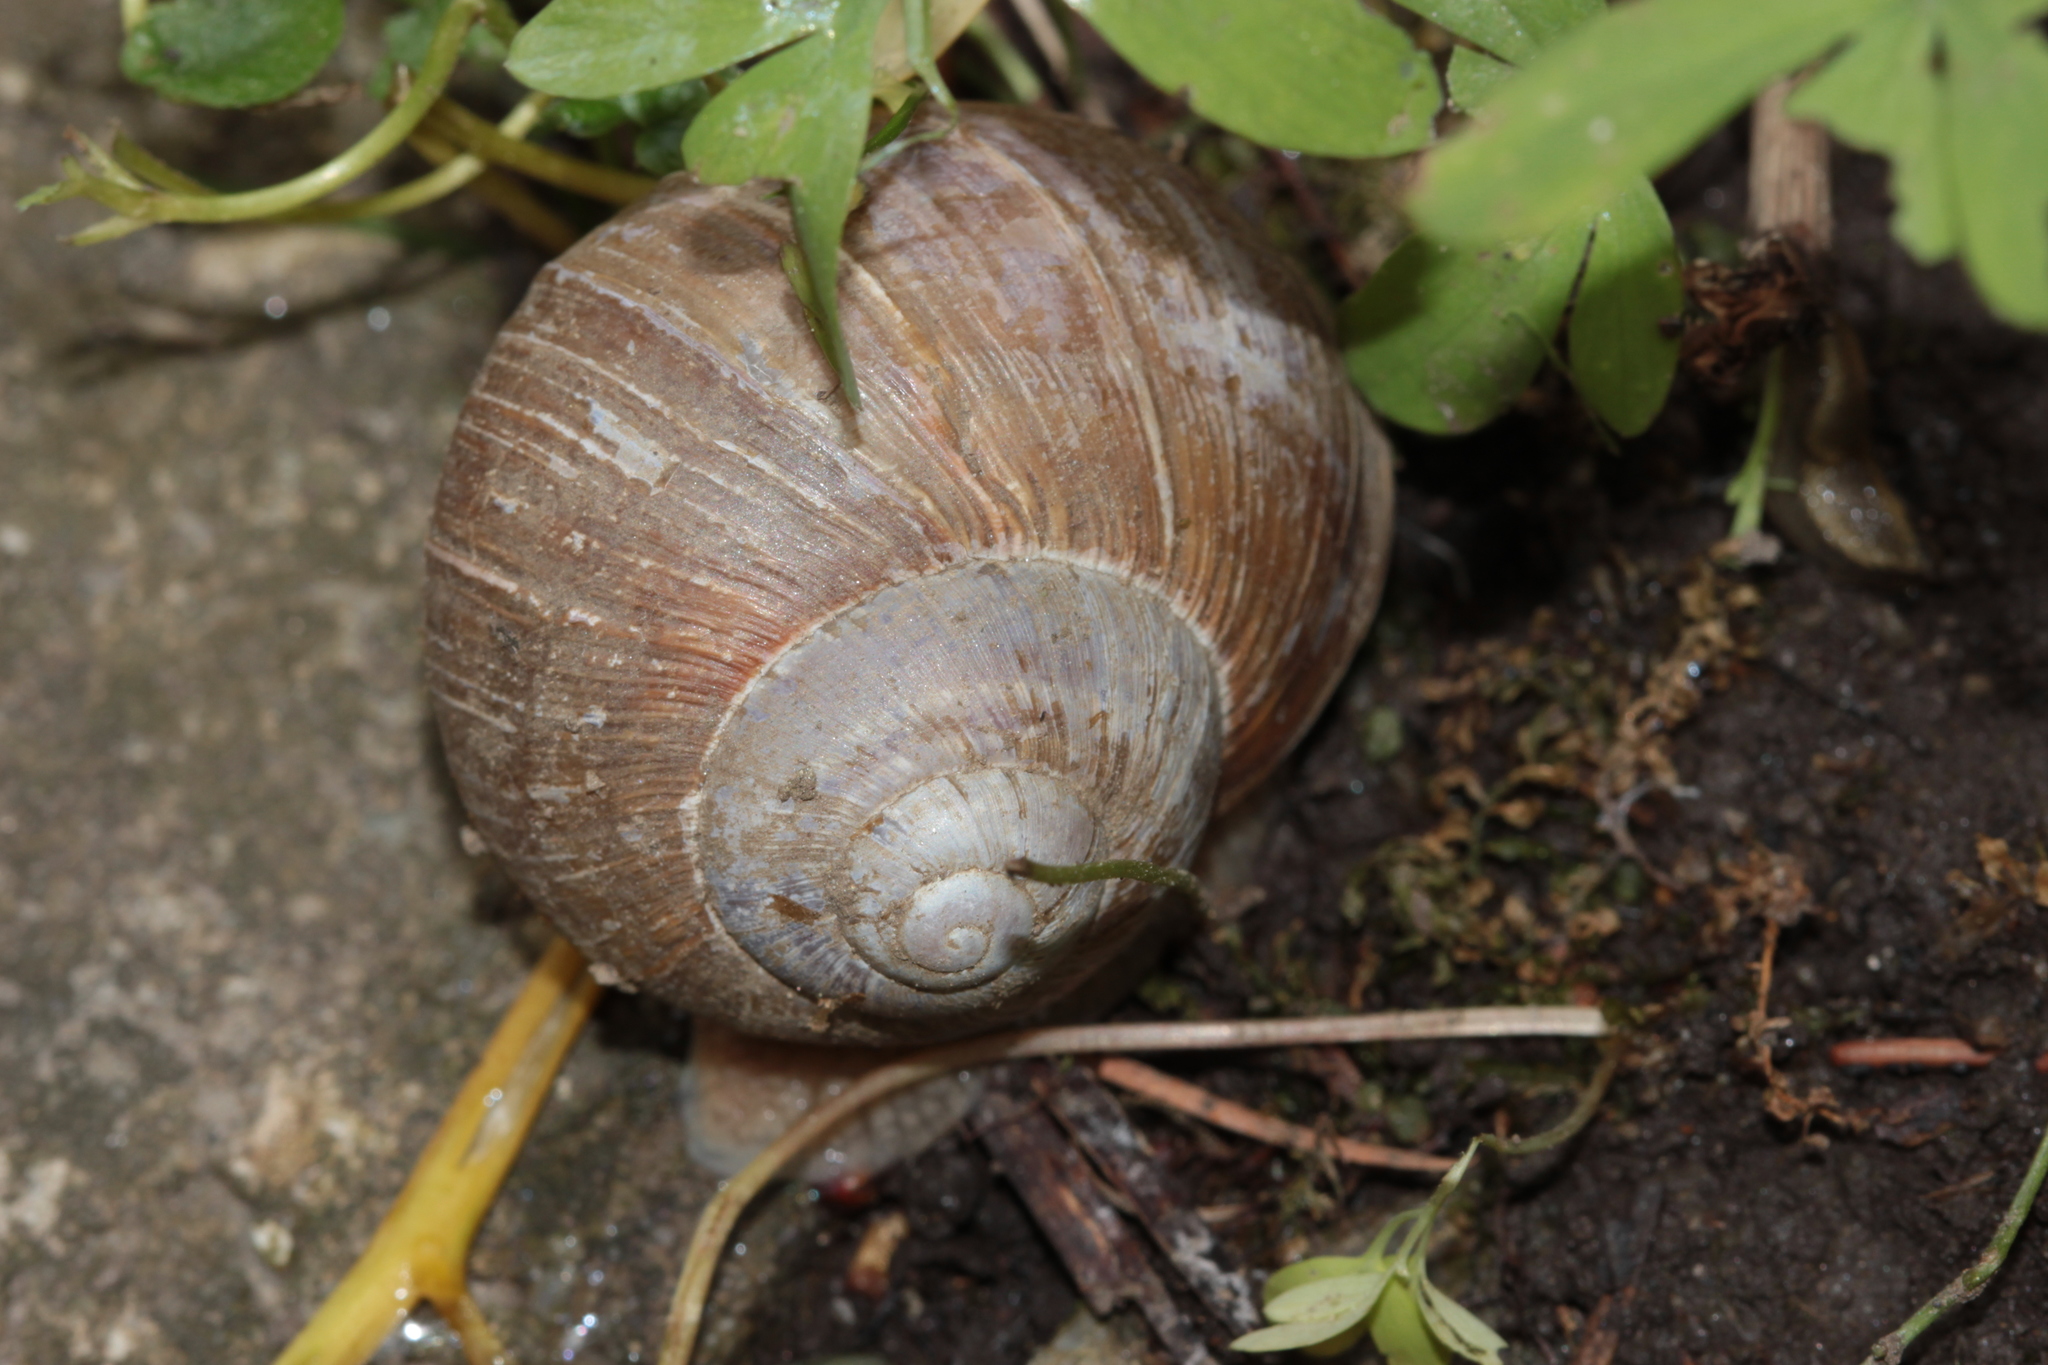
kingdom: Animalia
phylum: Mollusca
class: Gastropoda
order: Stylommatophora
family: Helicidae
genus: Helix
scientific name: Helix pomatia
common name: Roman snail
